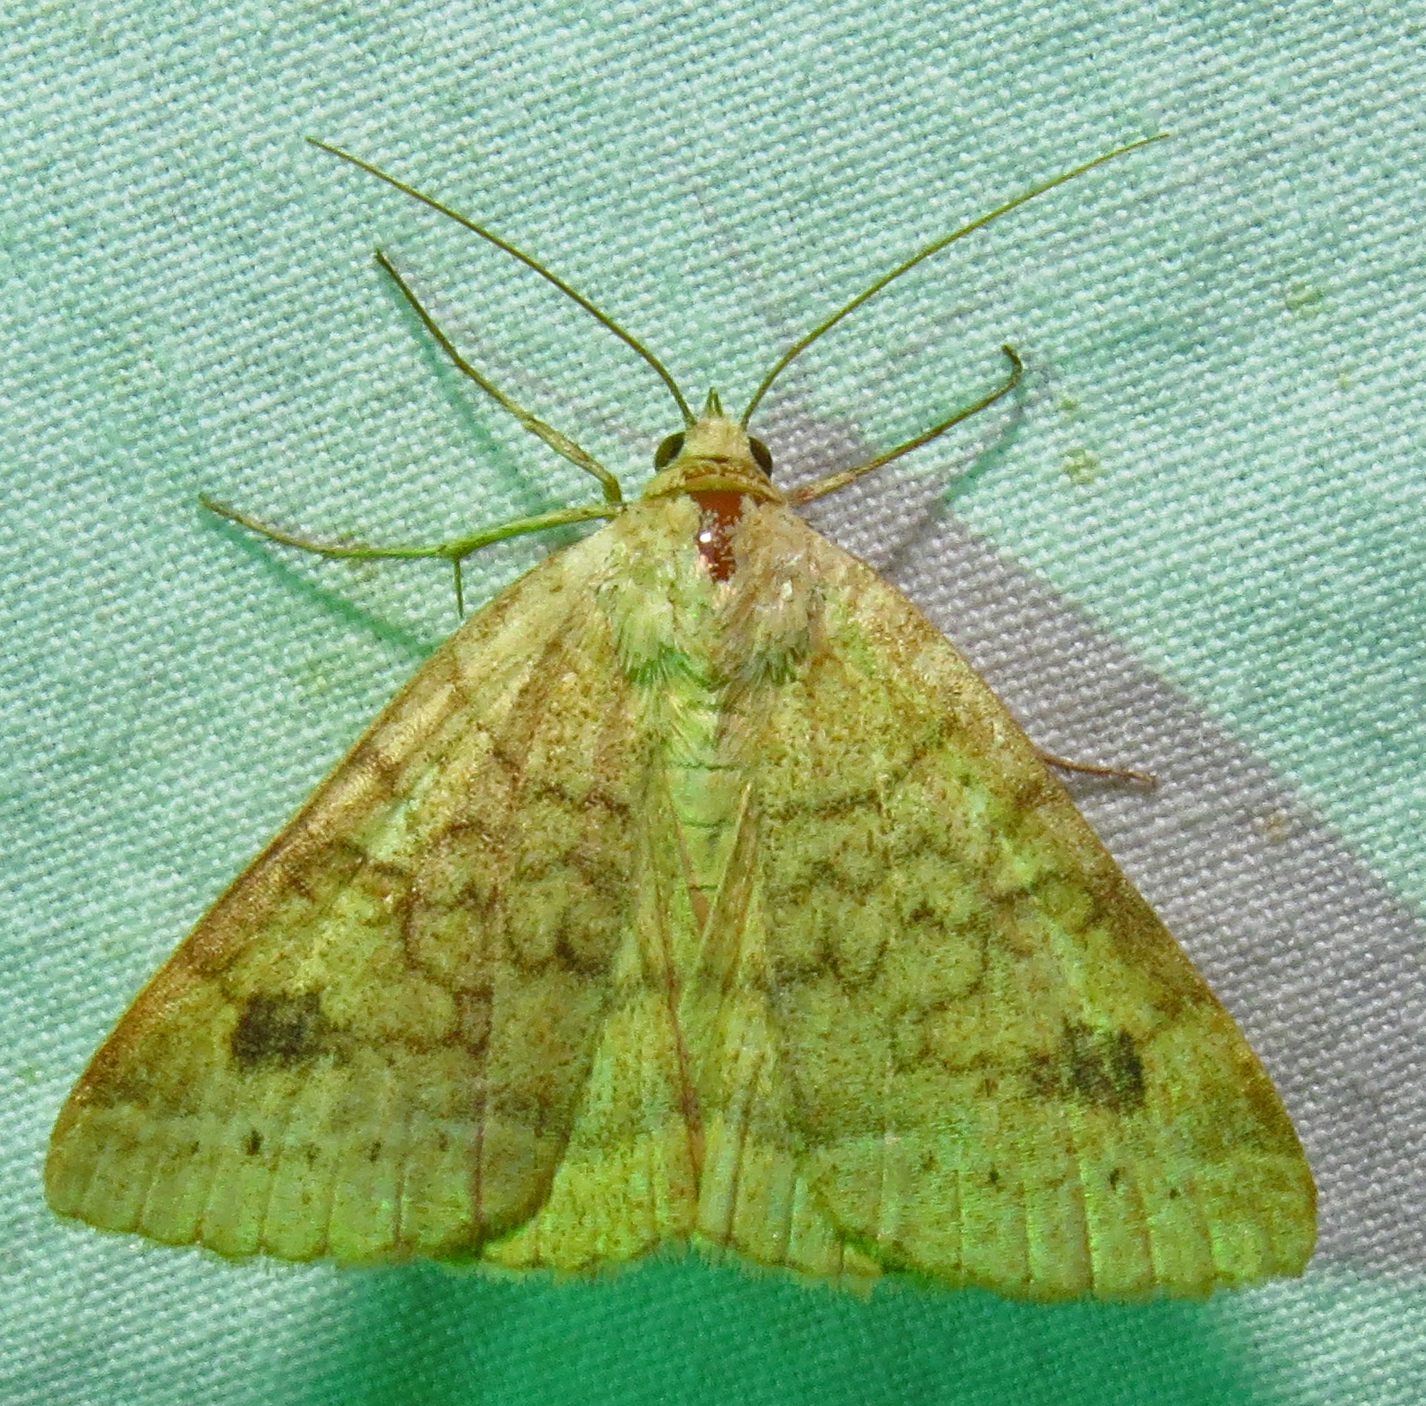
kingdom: Animalia
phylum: Arthropoda
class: Insecta
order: Lepidoptera
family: Erebidae
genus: Caenurgia
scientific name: Caenurgia chloropha
